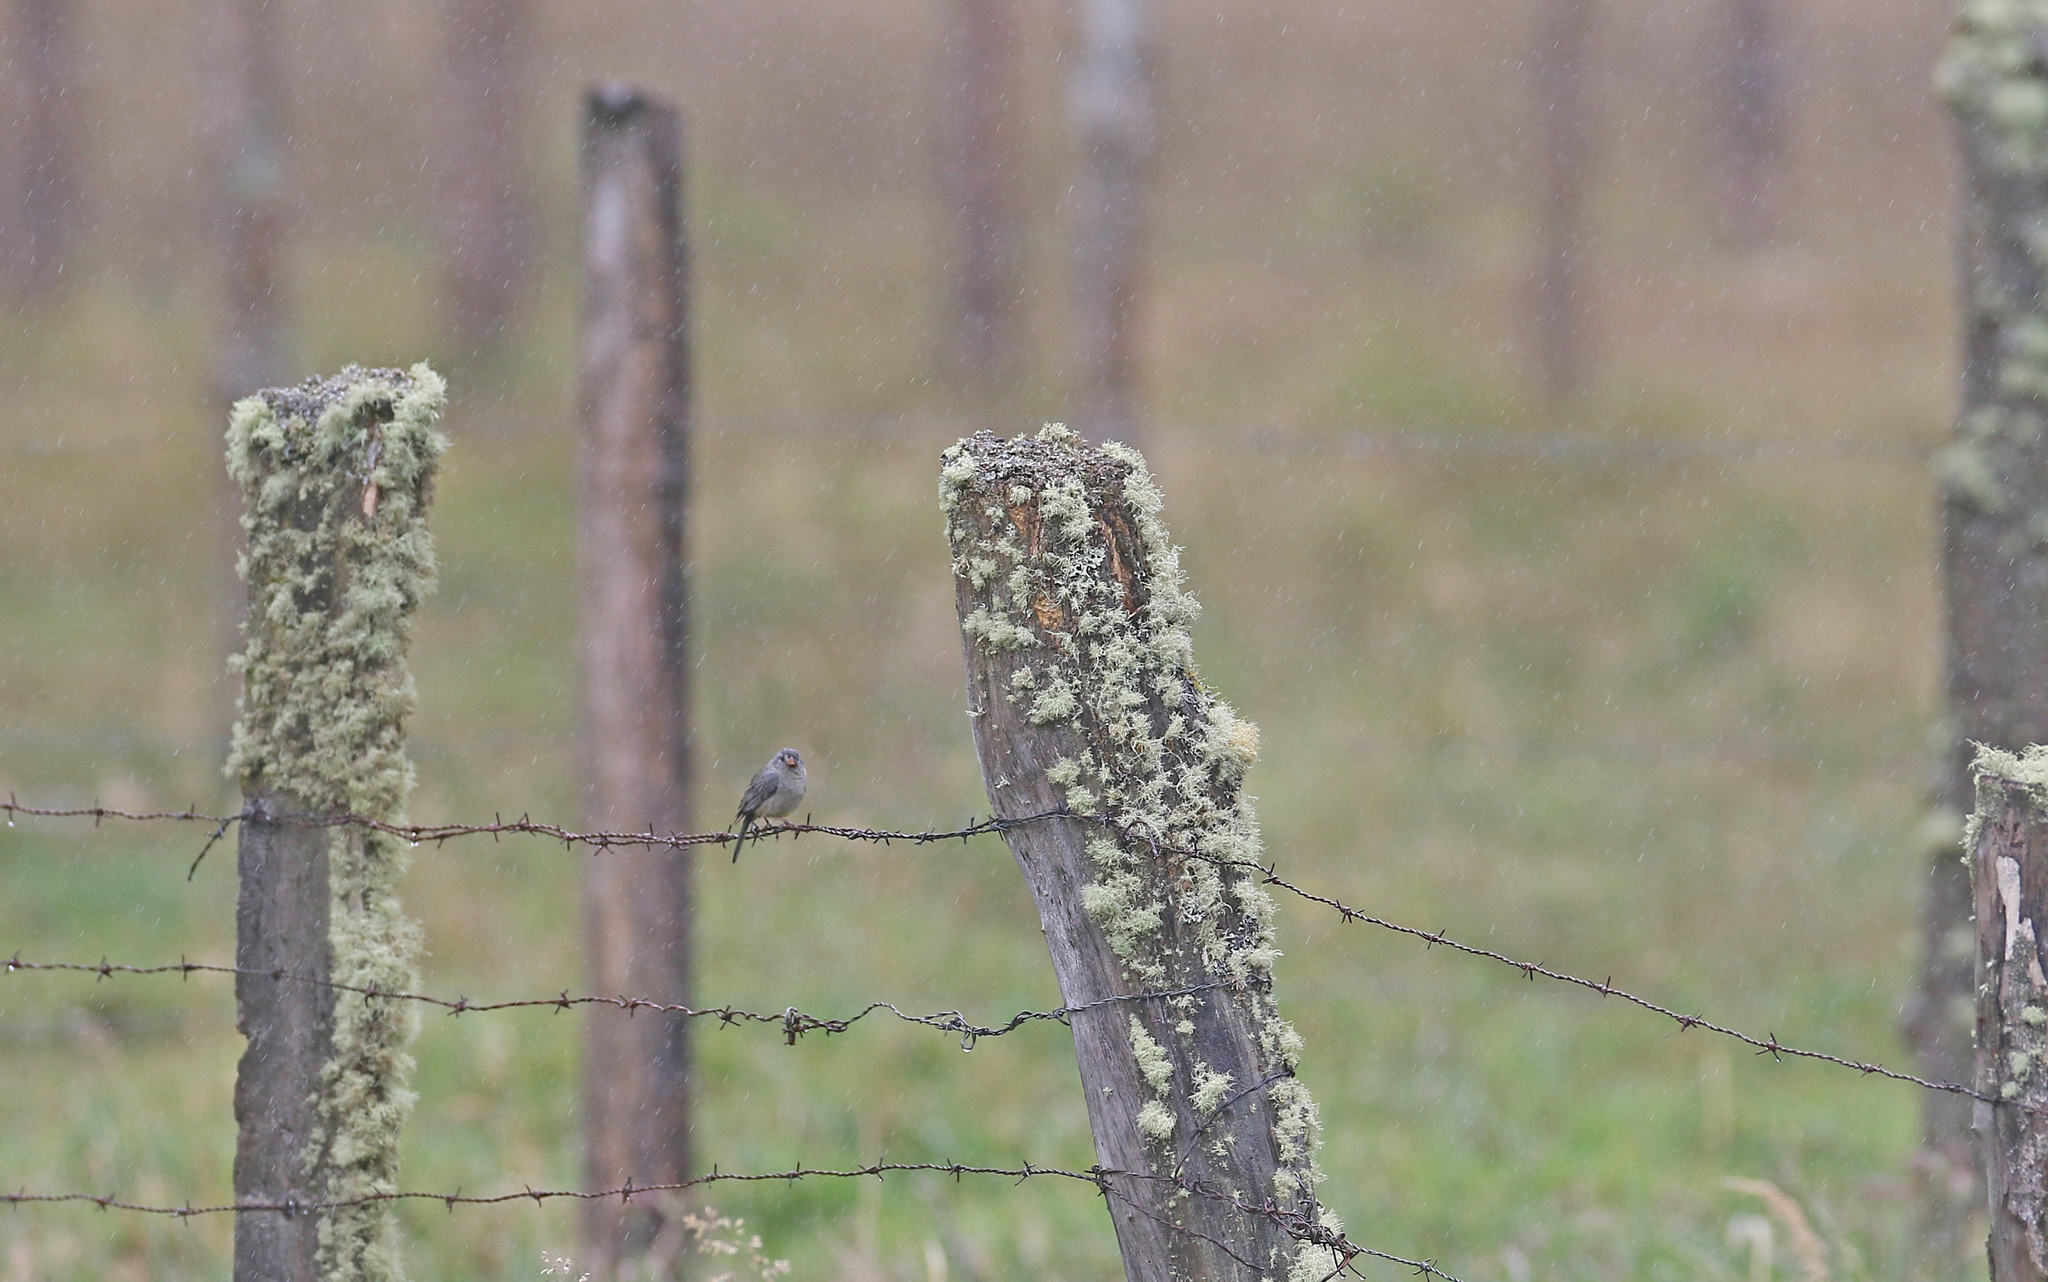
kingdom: Animalia
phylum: Chordata
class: Aves
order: Passeriformes
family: Thraupidae
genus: Catamenia
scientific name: Catamenia inornata
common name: Plain-colored seedeater
